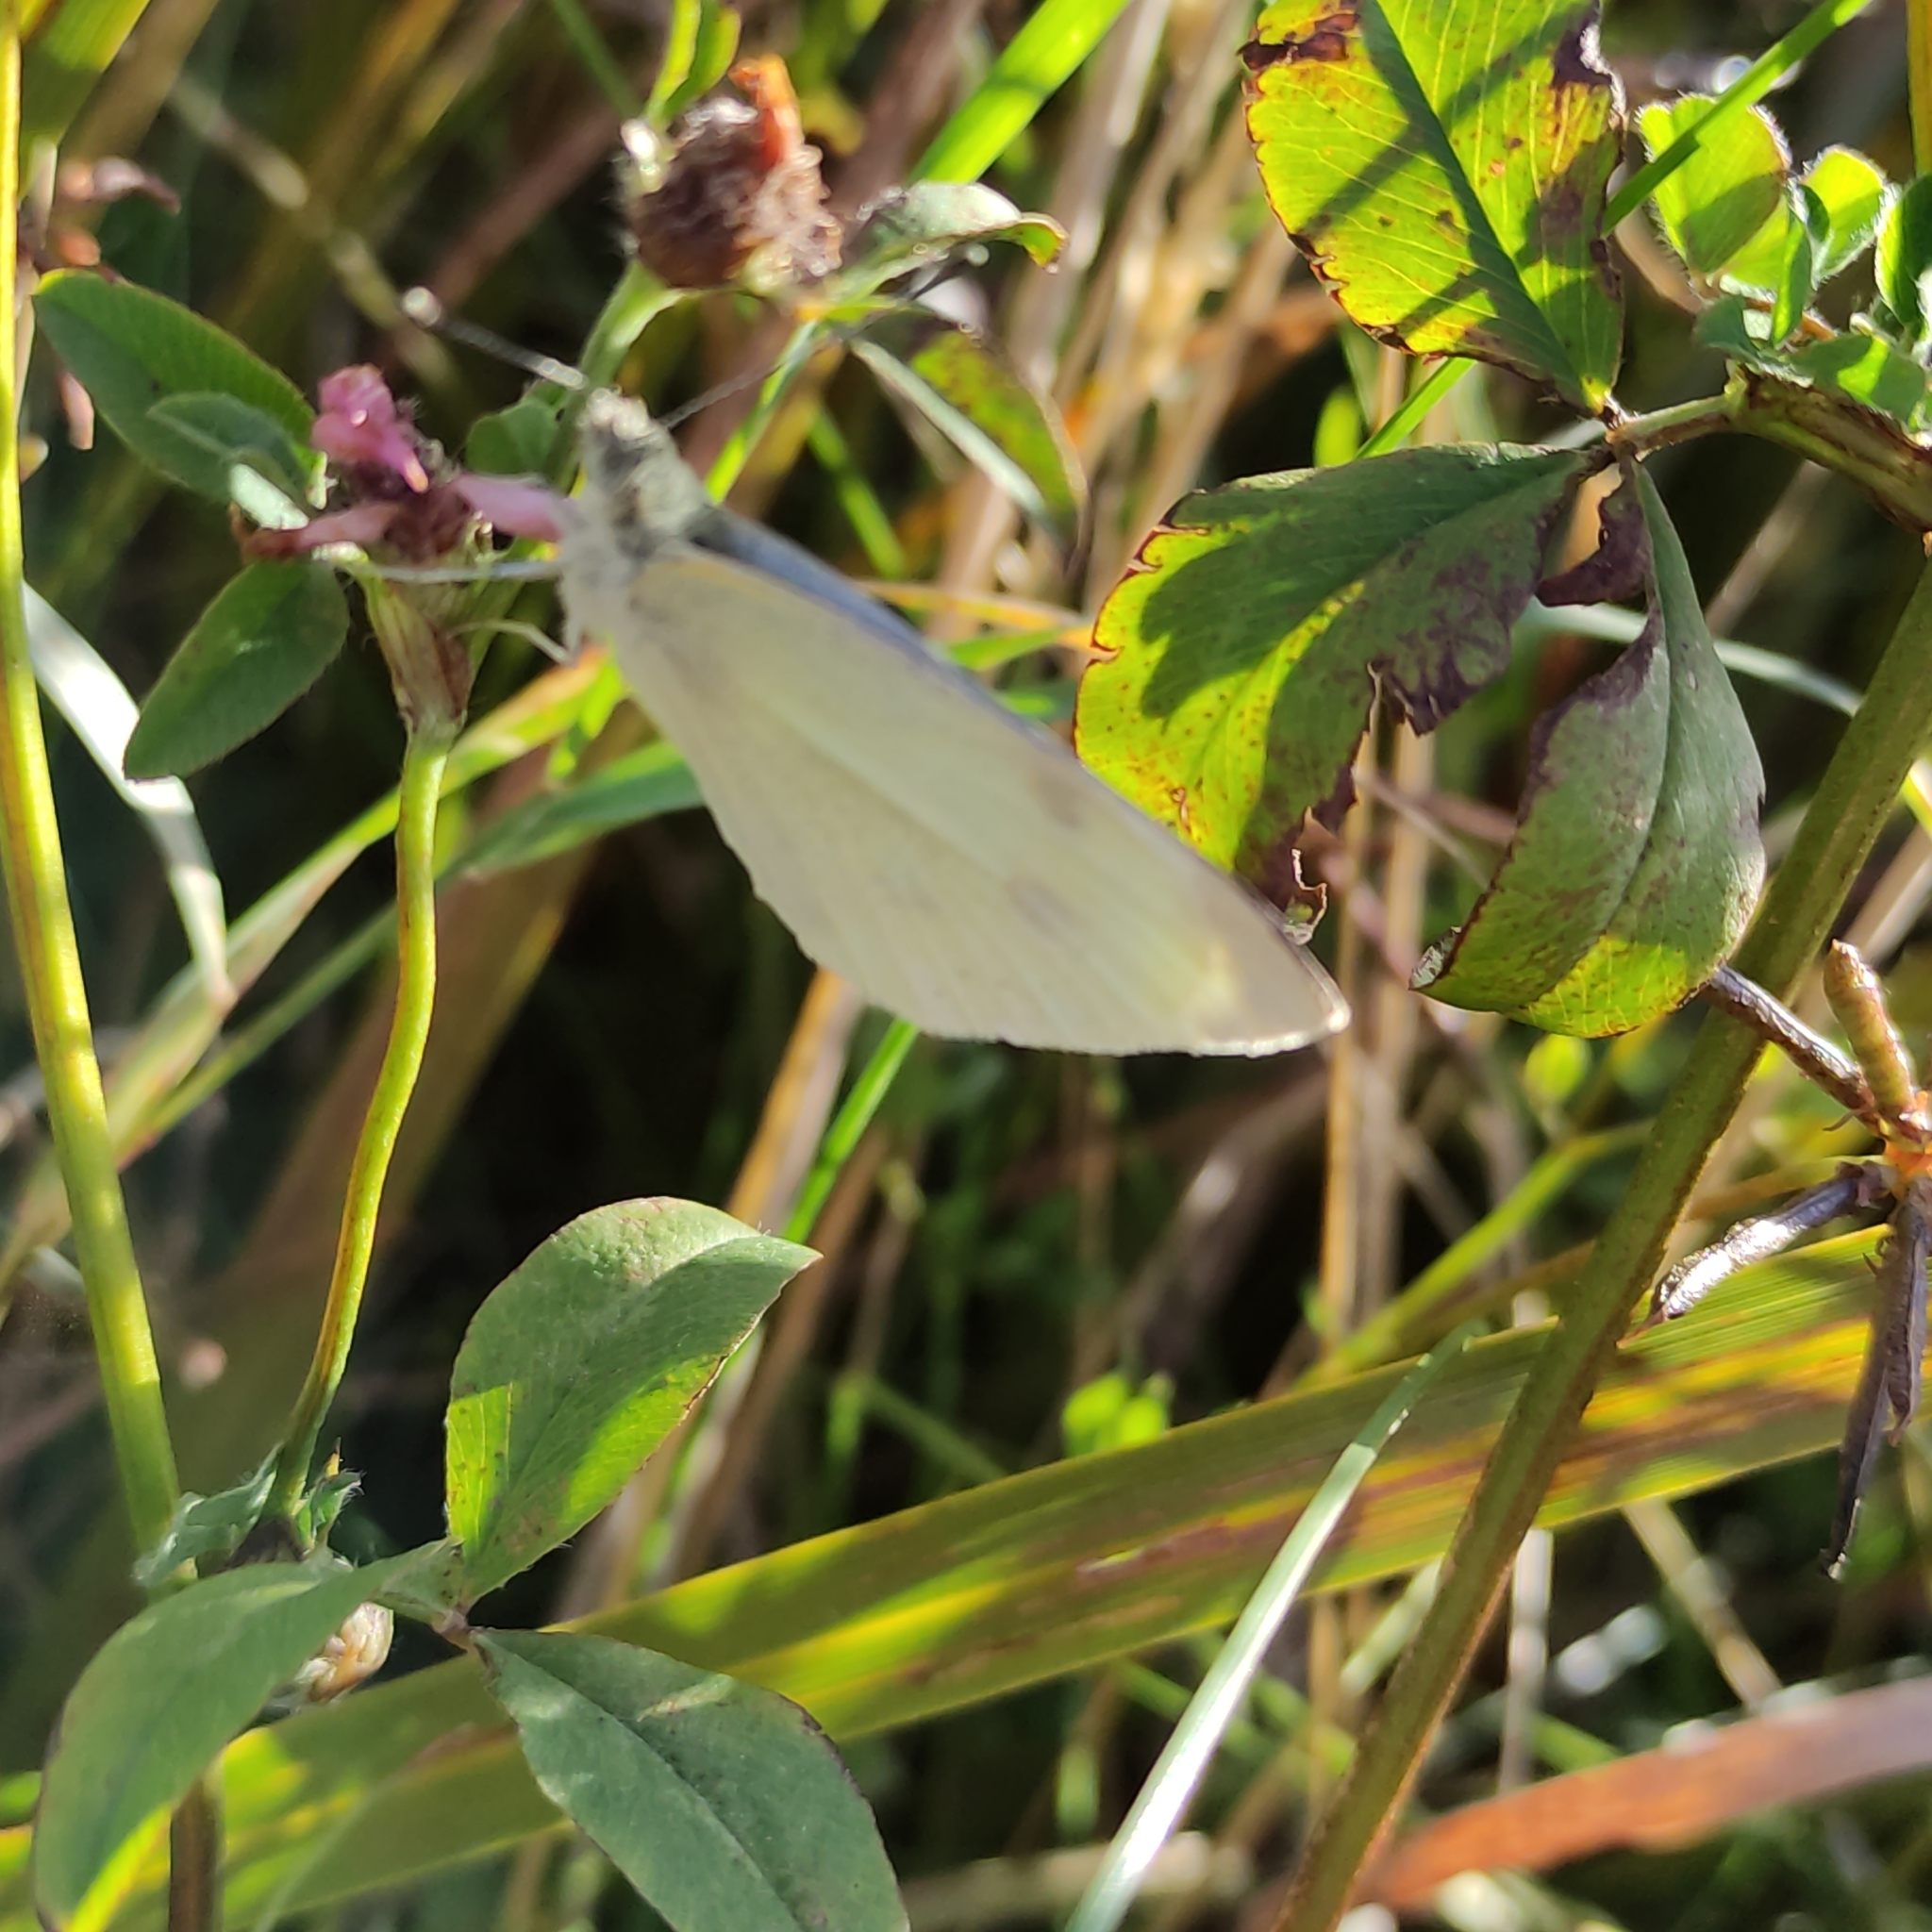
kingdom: Animalia
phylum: Arthropoda
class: Insecta
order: Lepidoptera
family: Pieridae
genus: Pieris
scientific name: Pieris rapae
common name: Small white
